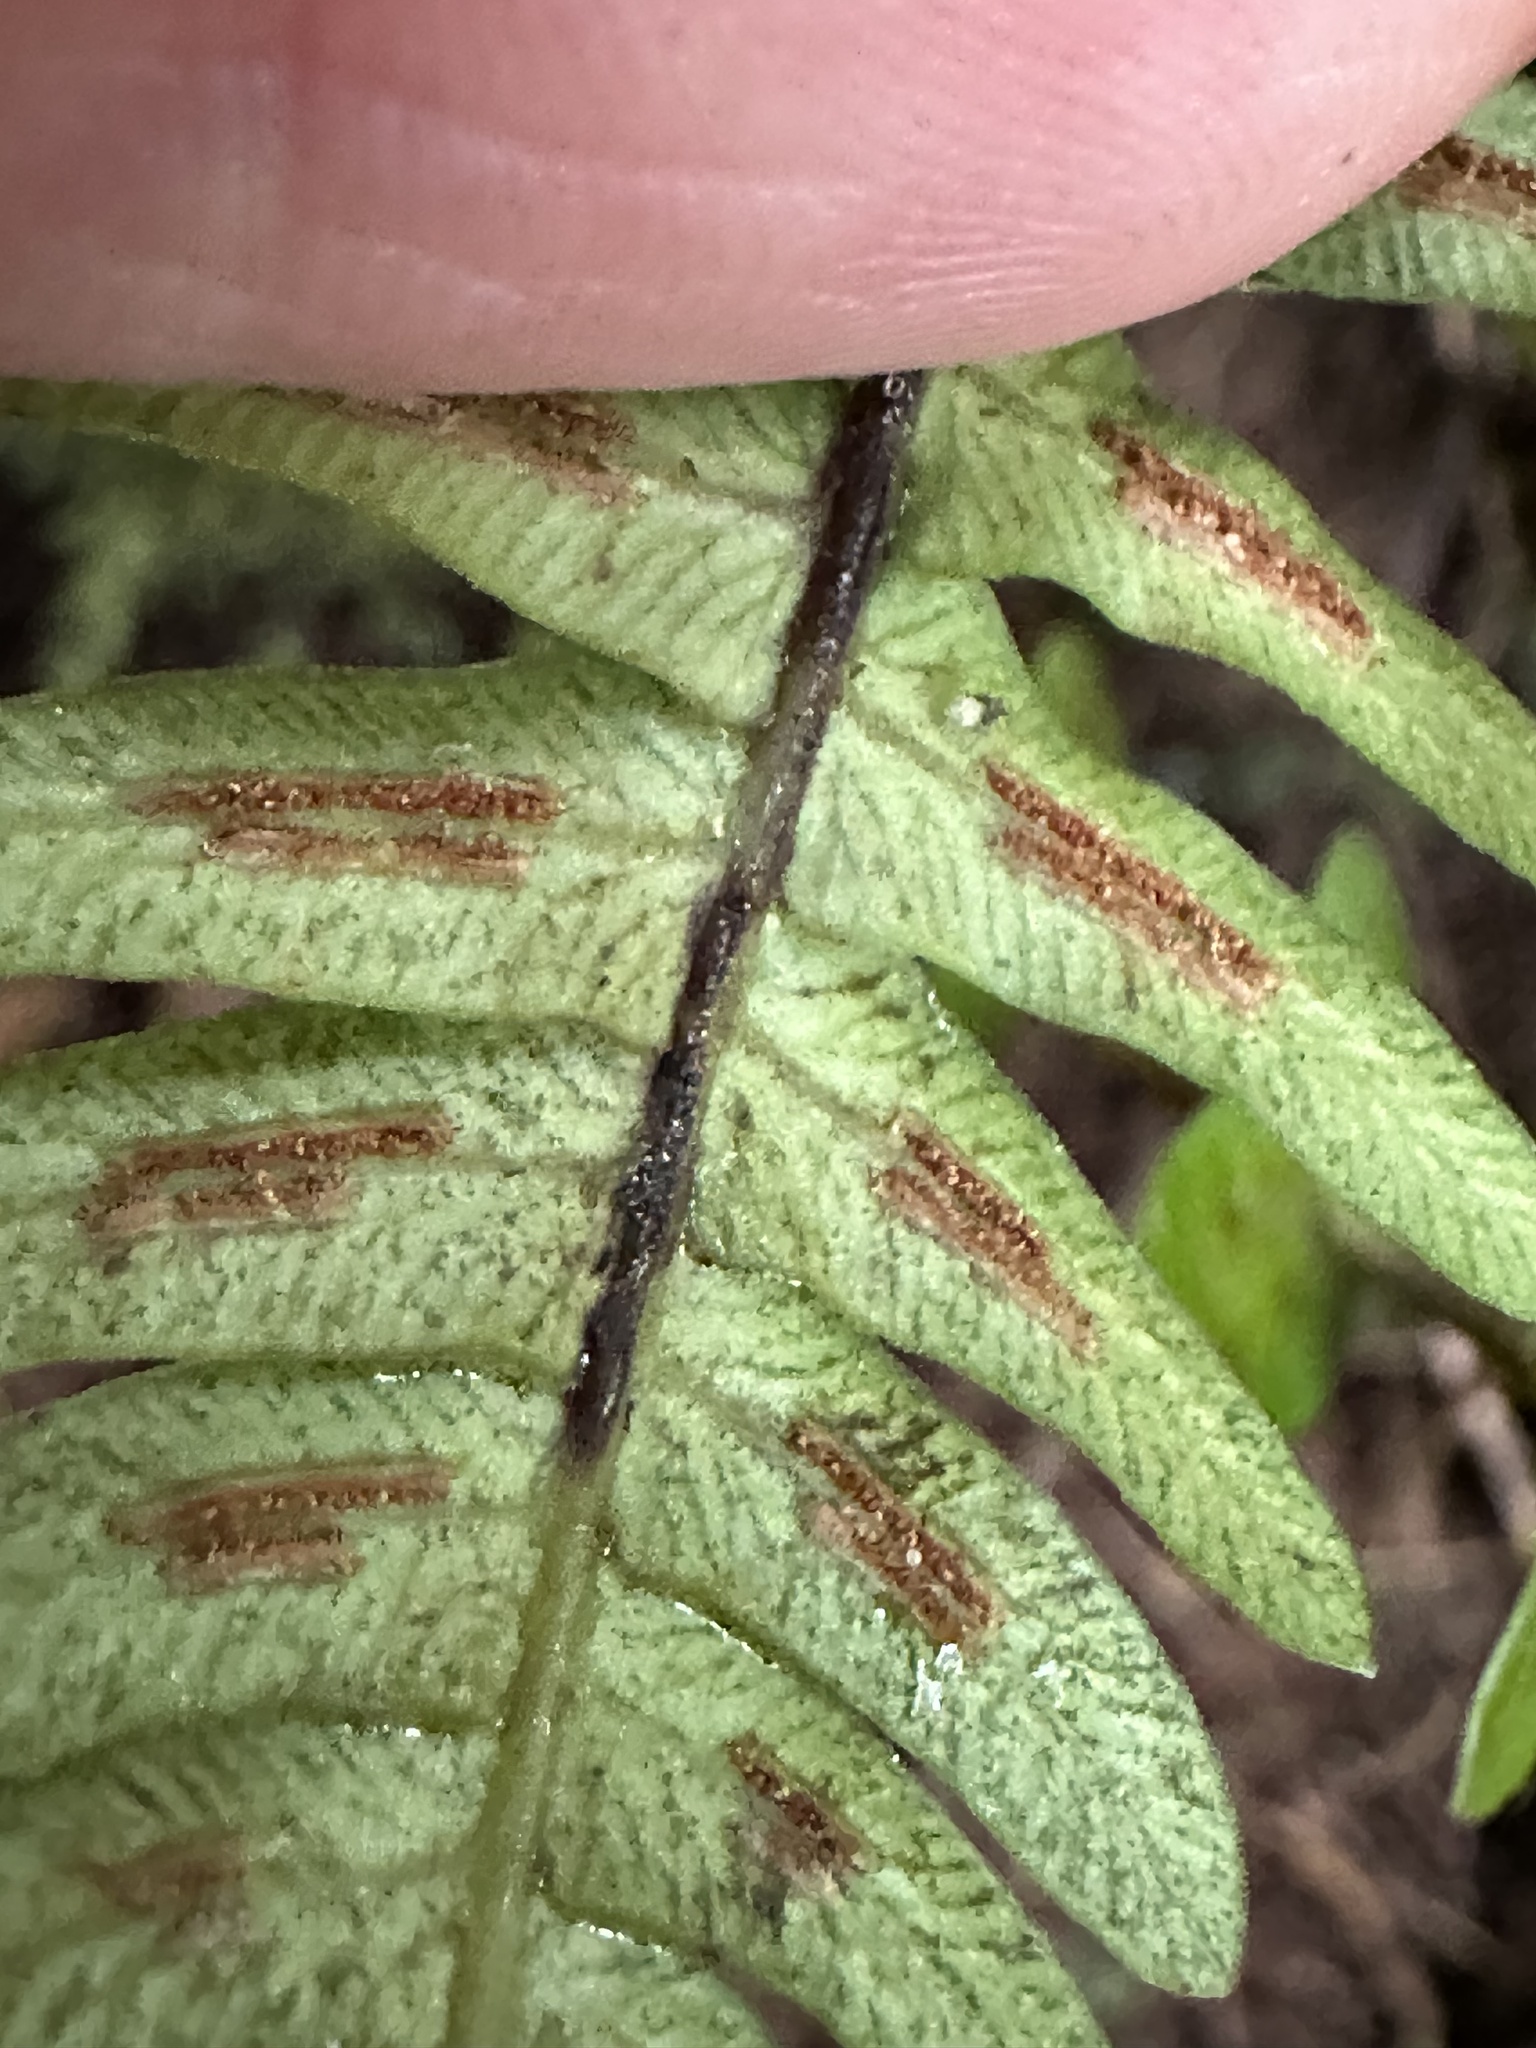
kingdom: Plantae
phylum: Tracheophyta
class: Polypodiopsida
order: Polypodiales
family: Blechnaceae
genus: Blechnum
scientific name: Blechnum appendiculatum
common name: Palm fern
